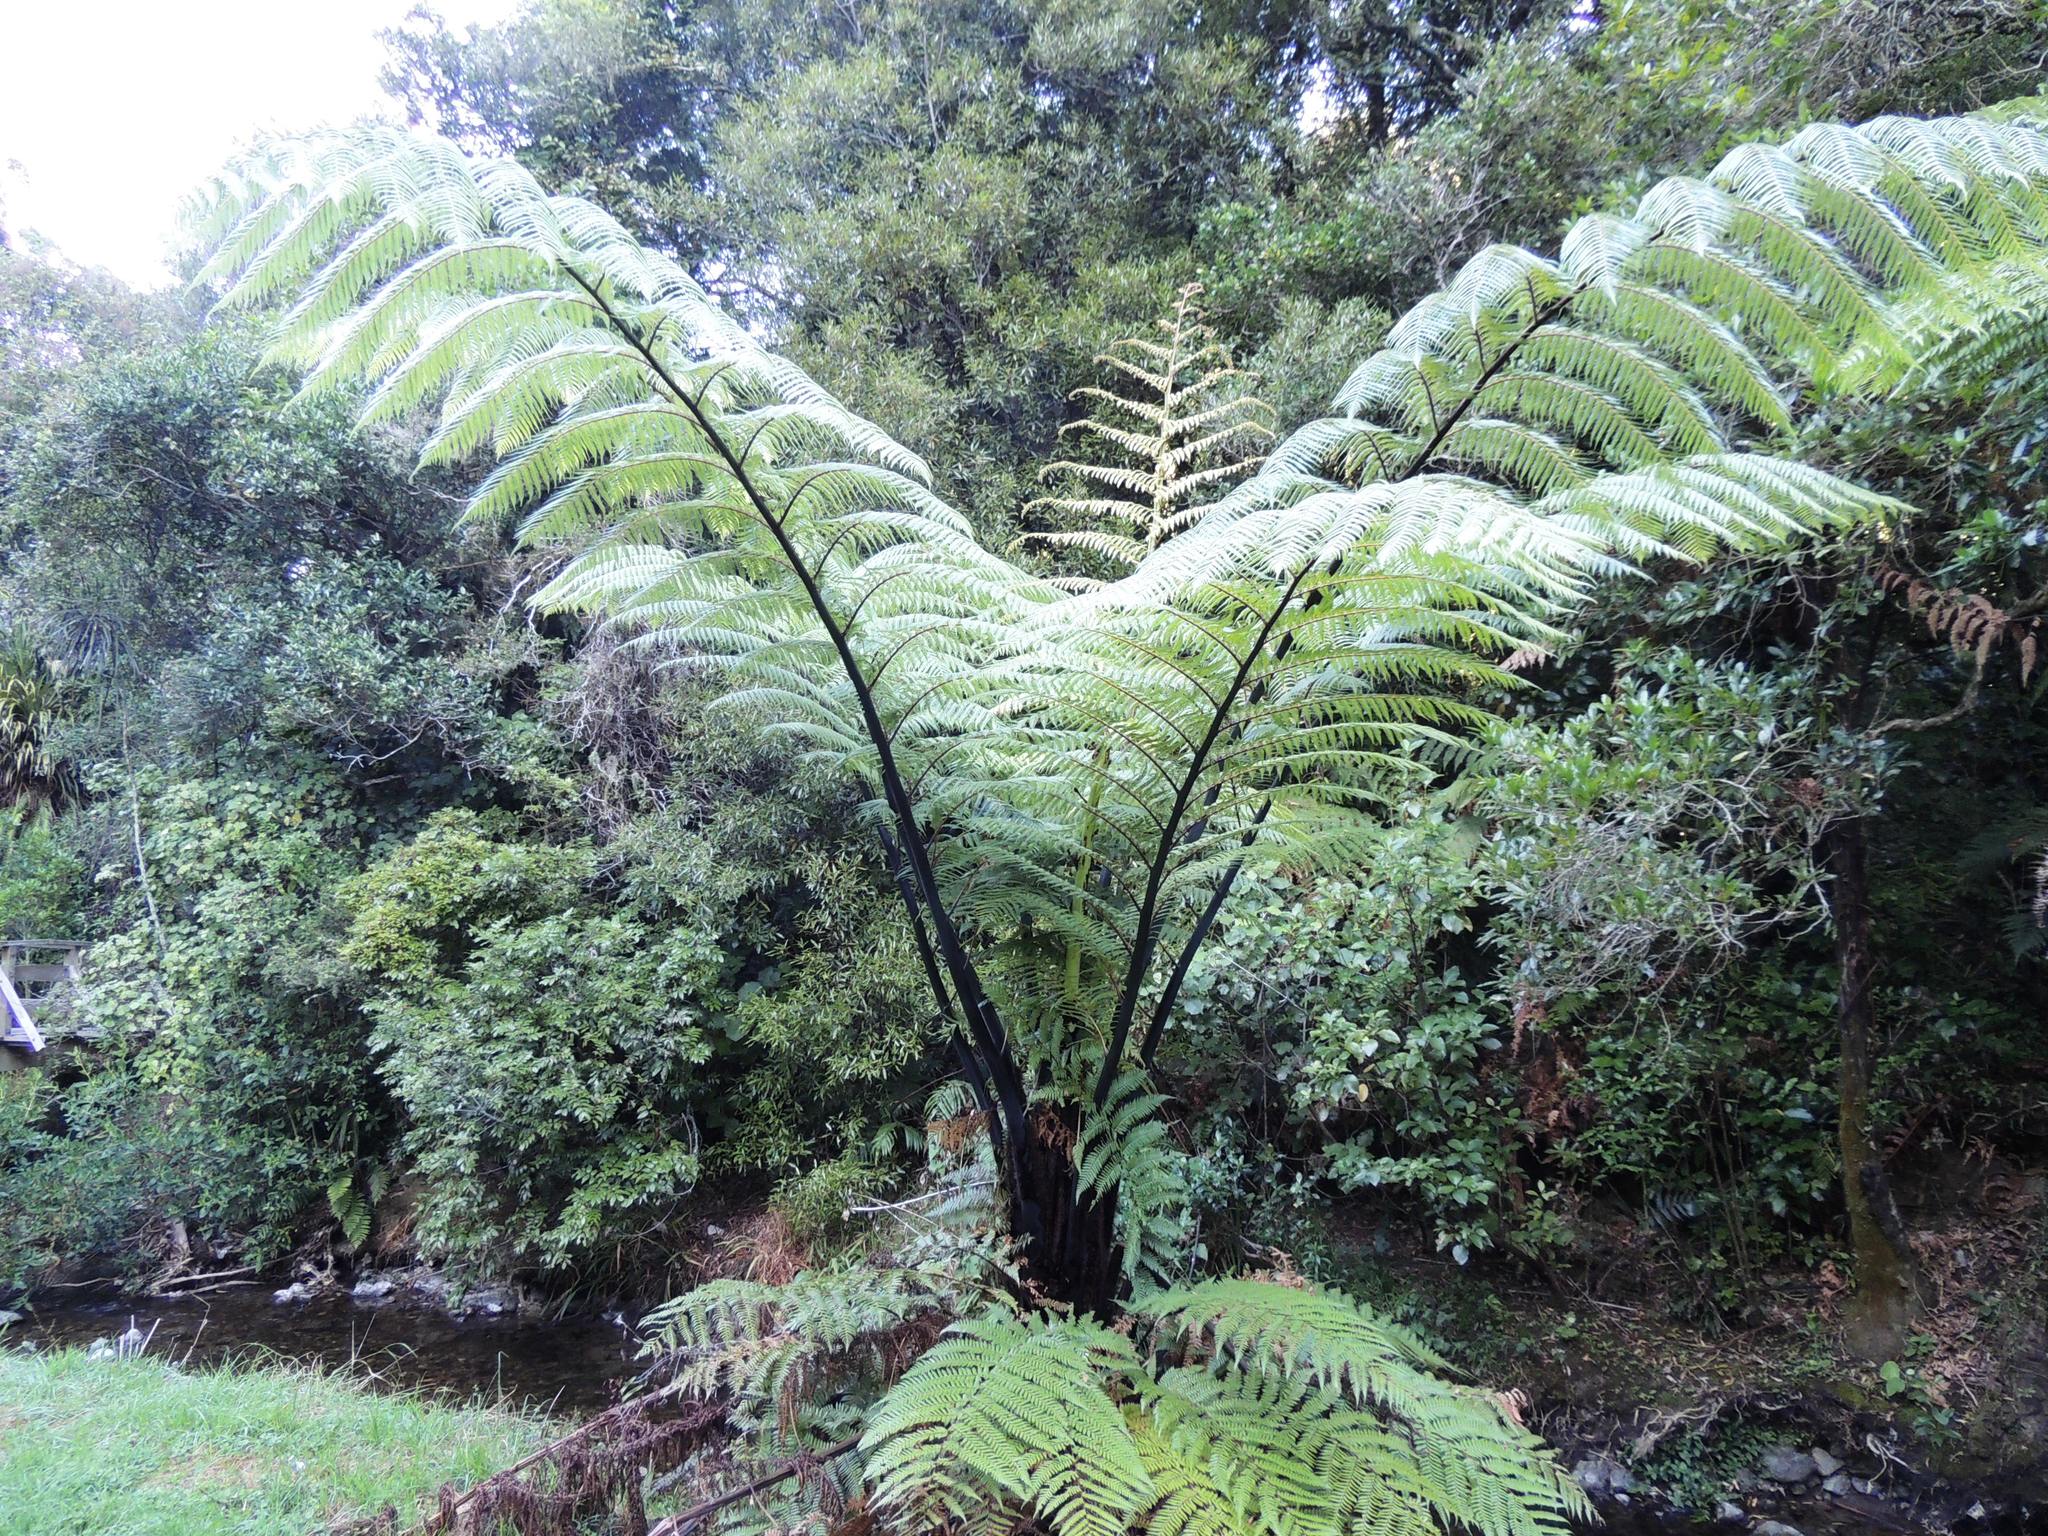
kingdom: Plantae
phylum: Tracheophyta
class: Polypodiopsida
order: Cyatheales
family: Cyatheaceae
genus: Sphaeropteris
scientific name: Sphaeropteris medullaris
